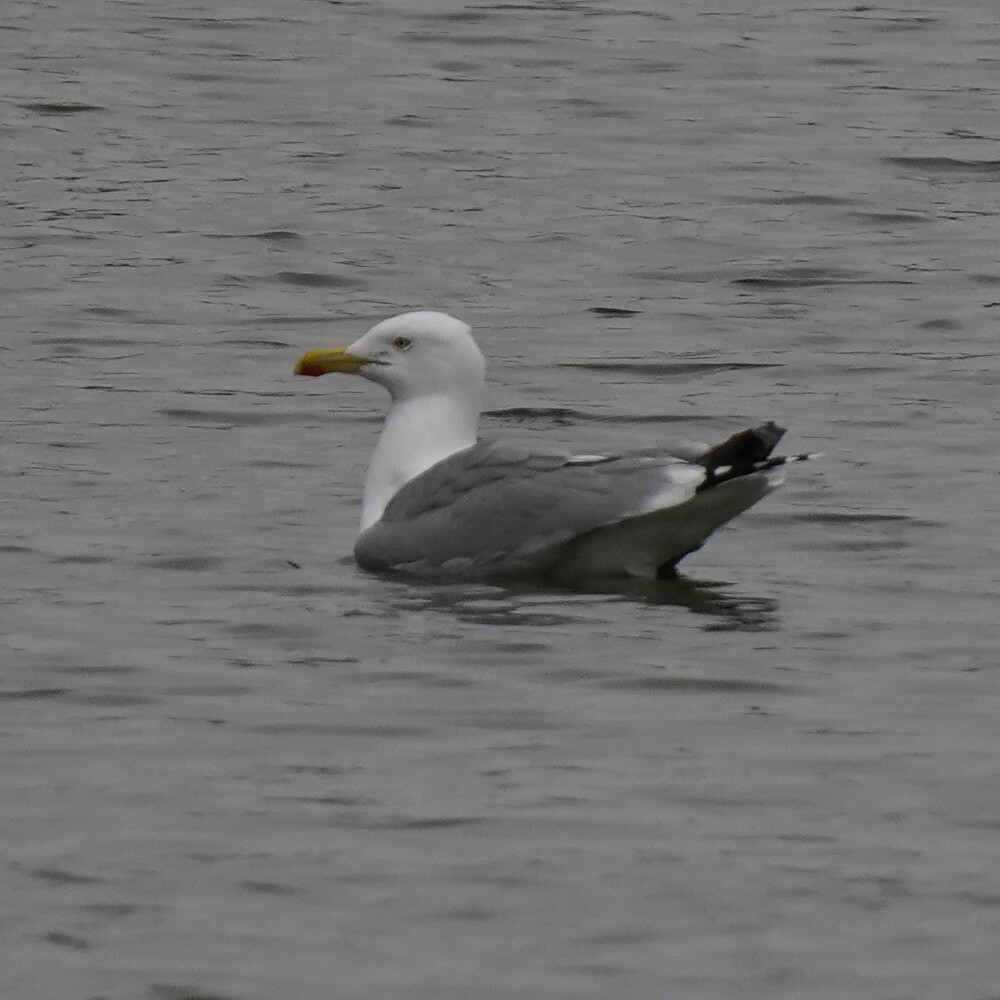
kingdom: Animalia
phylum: Chordata
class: Aves
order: Charadriiformes
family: Laridae
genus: Larus
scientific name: Larus argentatus
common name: Herring gull
